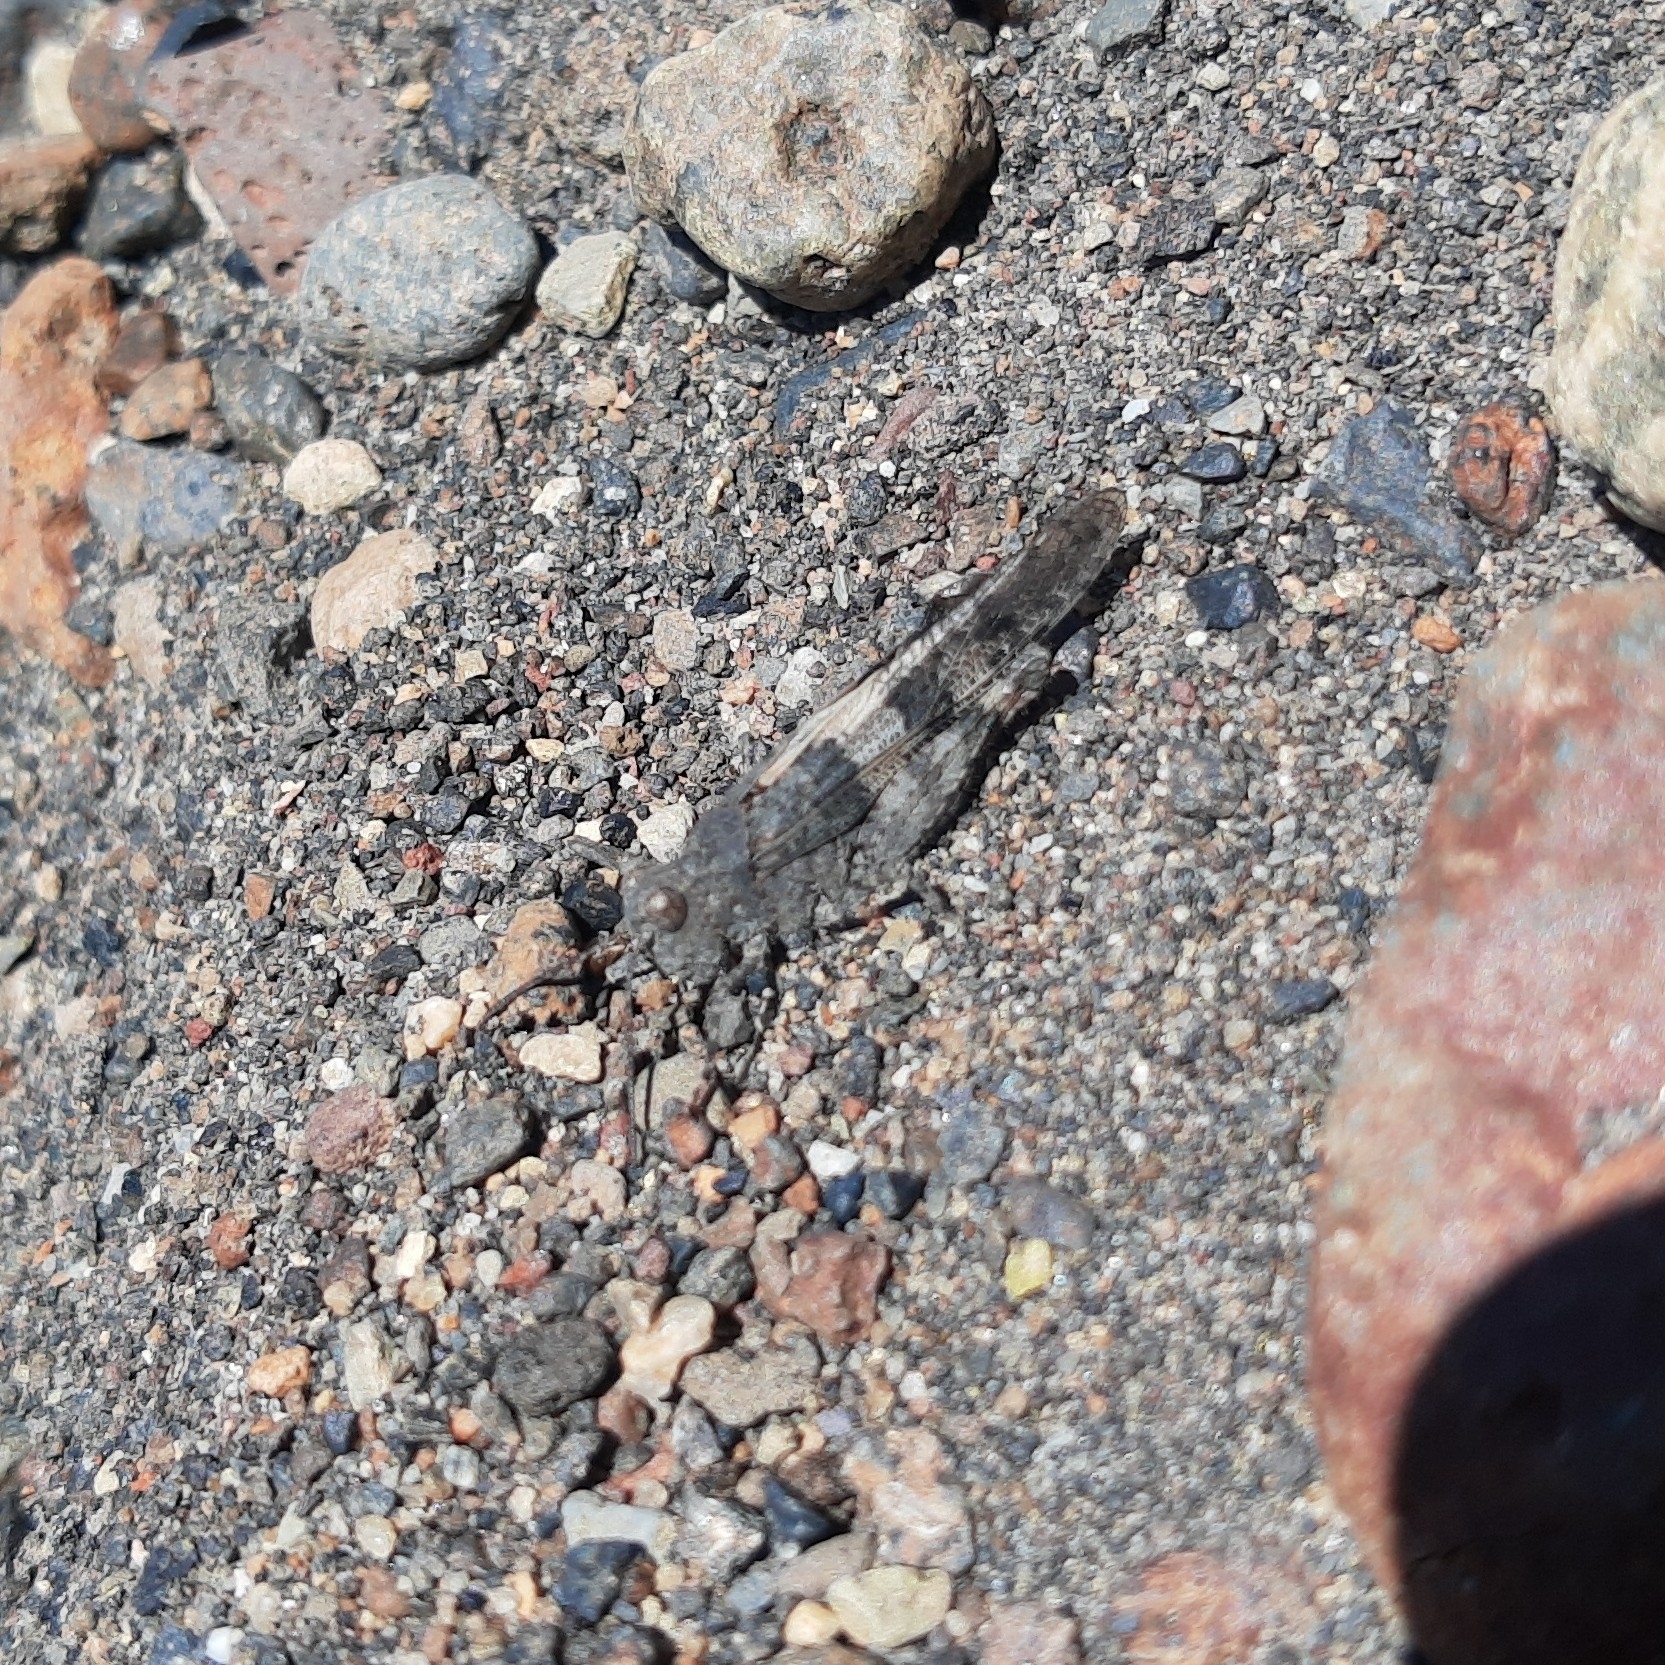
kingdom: Animalia
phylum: Arthropoda
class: Insecta
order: Orthoptera
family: Acrididae
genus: Trimerotropis
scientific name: Trimerotropis pallidipennis
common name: Pallid-winged grasshopper
